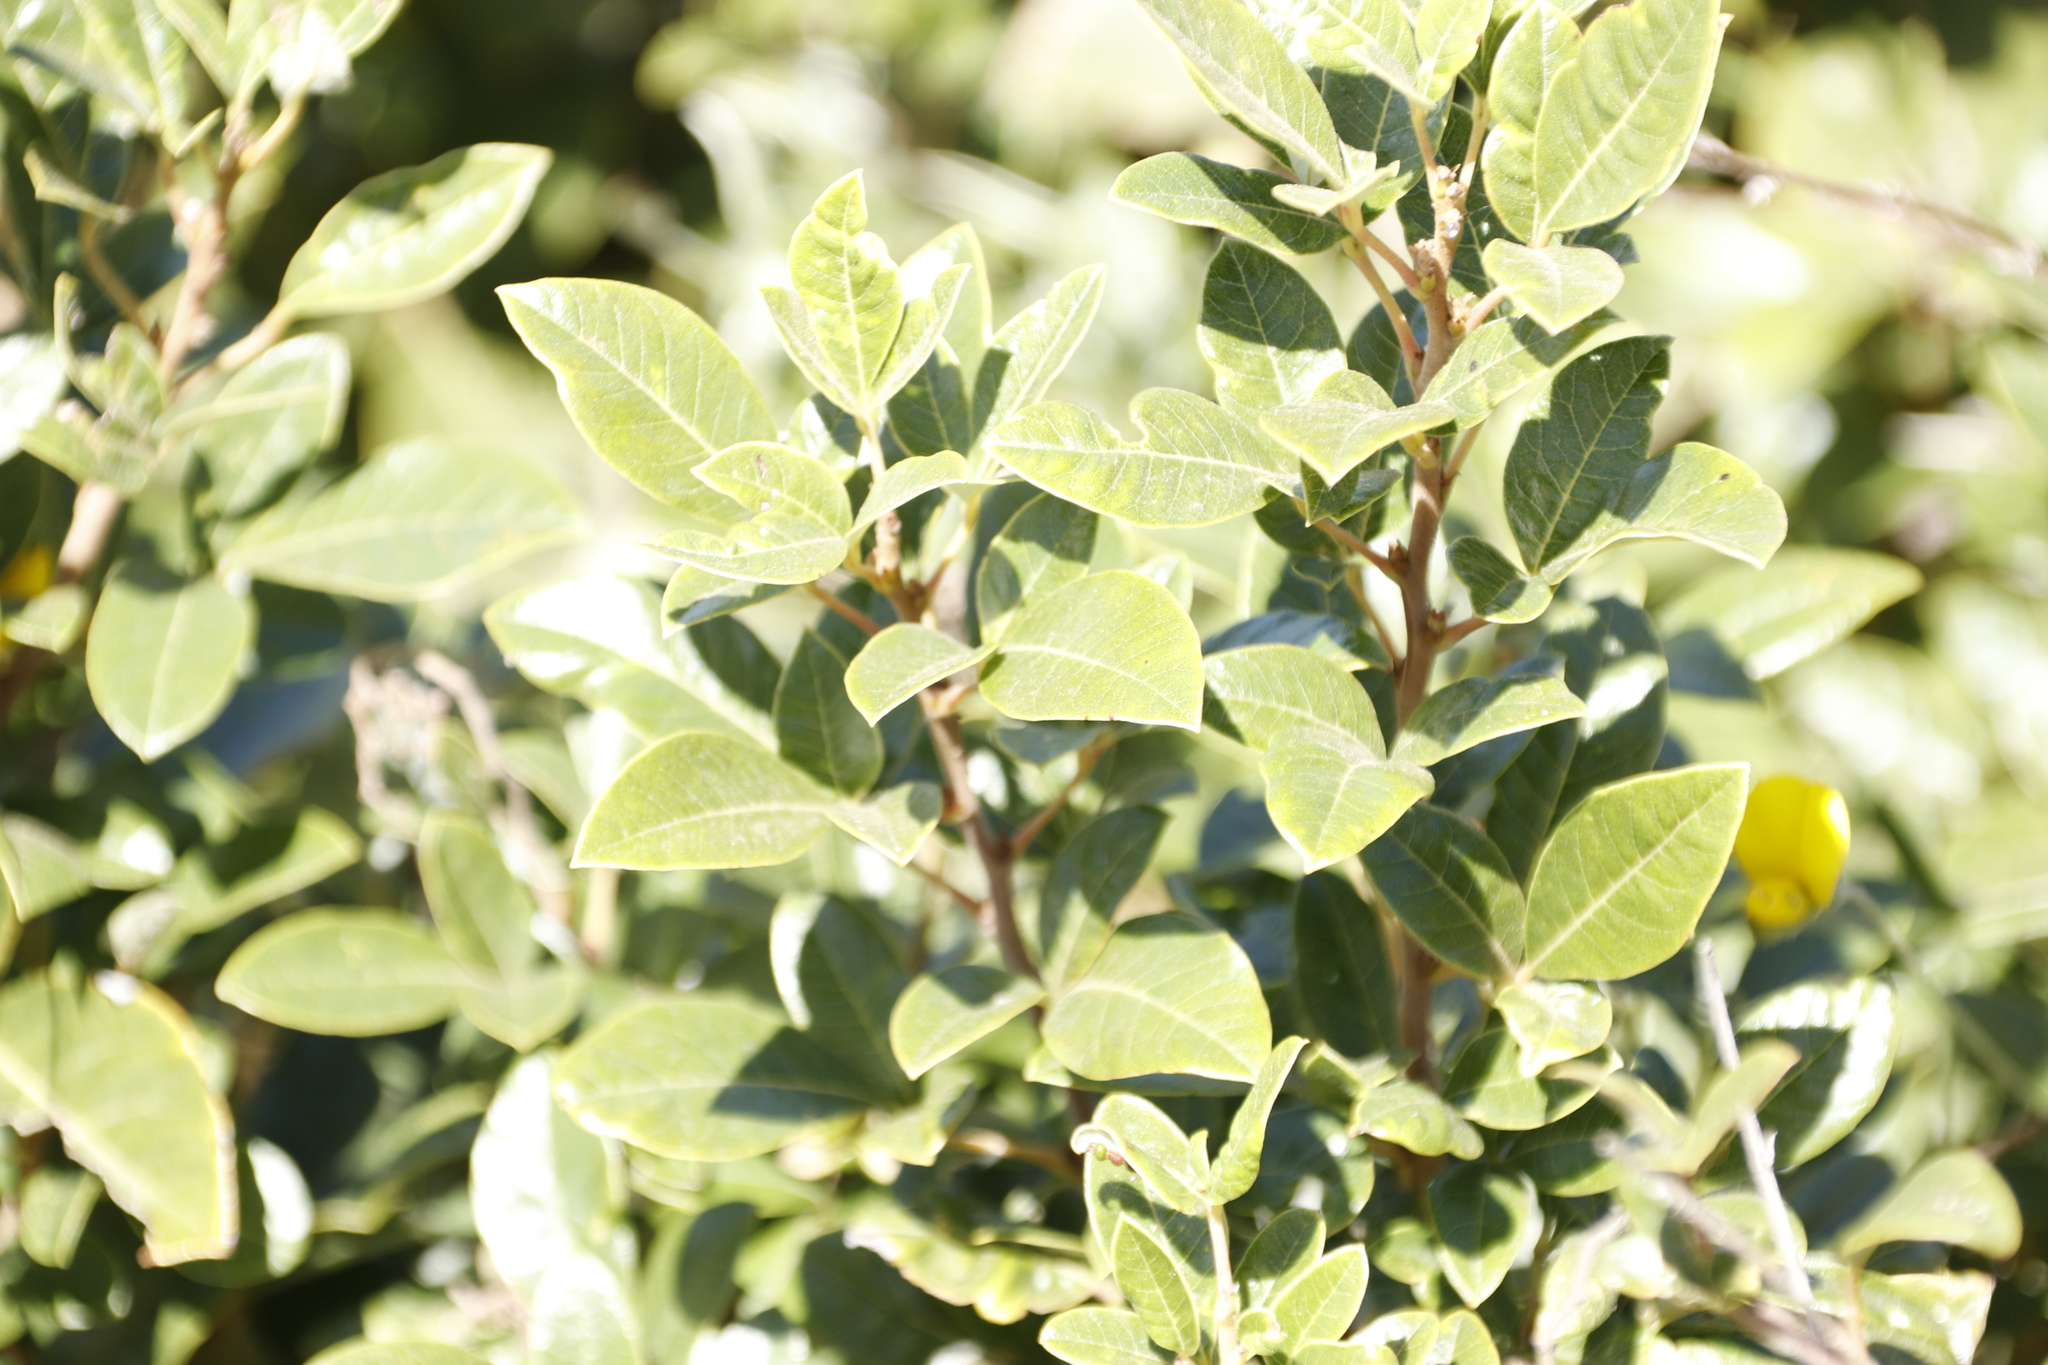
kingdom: Plantae
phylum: Tracheophyta
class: Magnoliopsida
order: Sapindales
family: Anacardiaceae
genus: Searsia
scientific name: Searsia tomentosa
